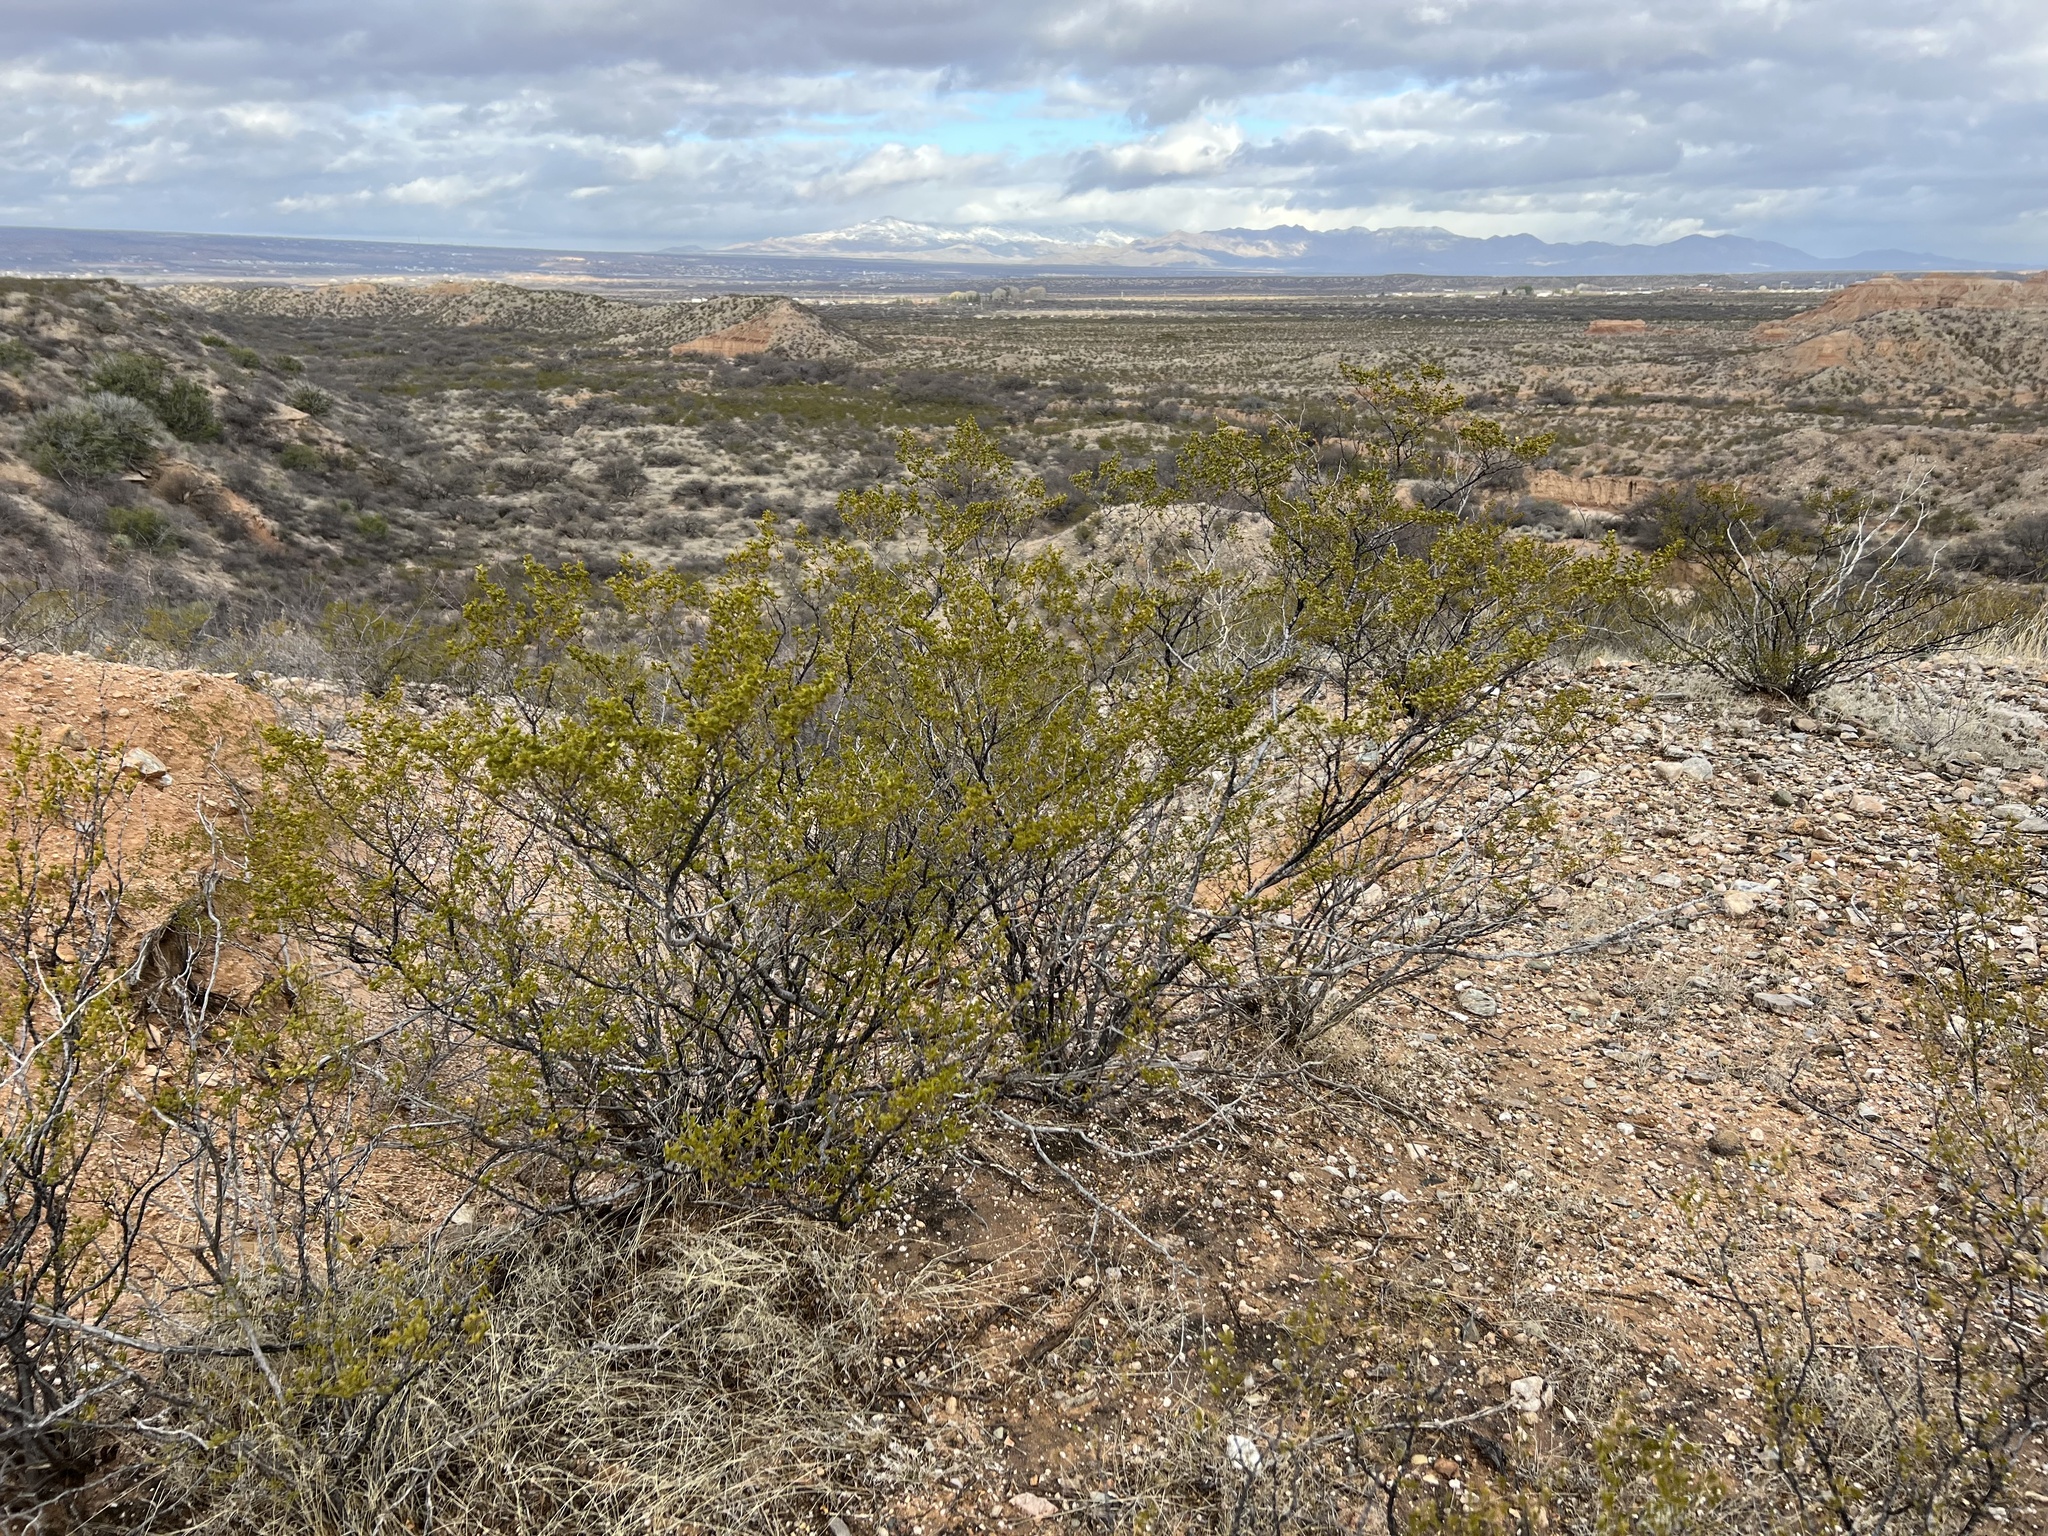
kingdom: Plantae
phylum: Tracheophyta
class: Magnoliopsida
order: Zygophyllales
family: Zygophyllaceae
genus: Larrea
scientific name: Larrea tridentata
